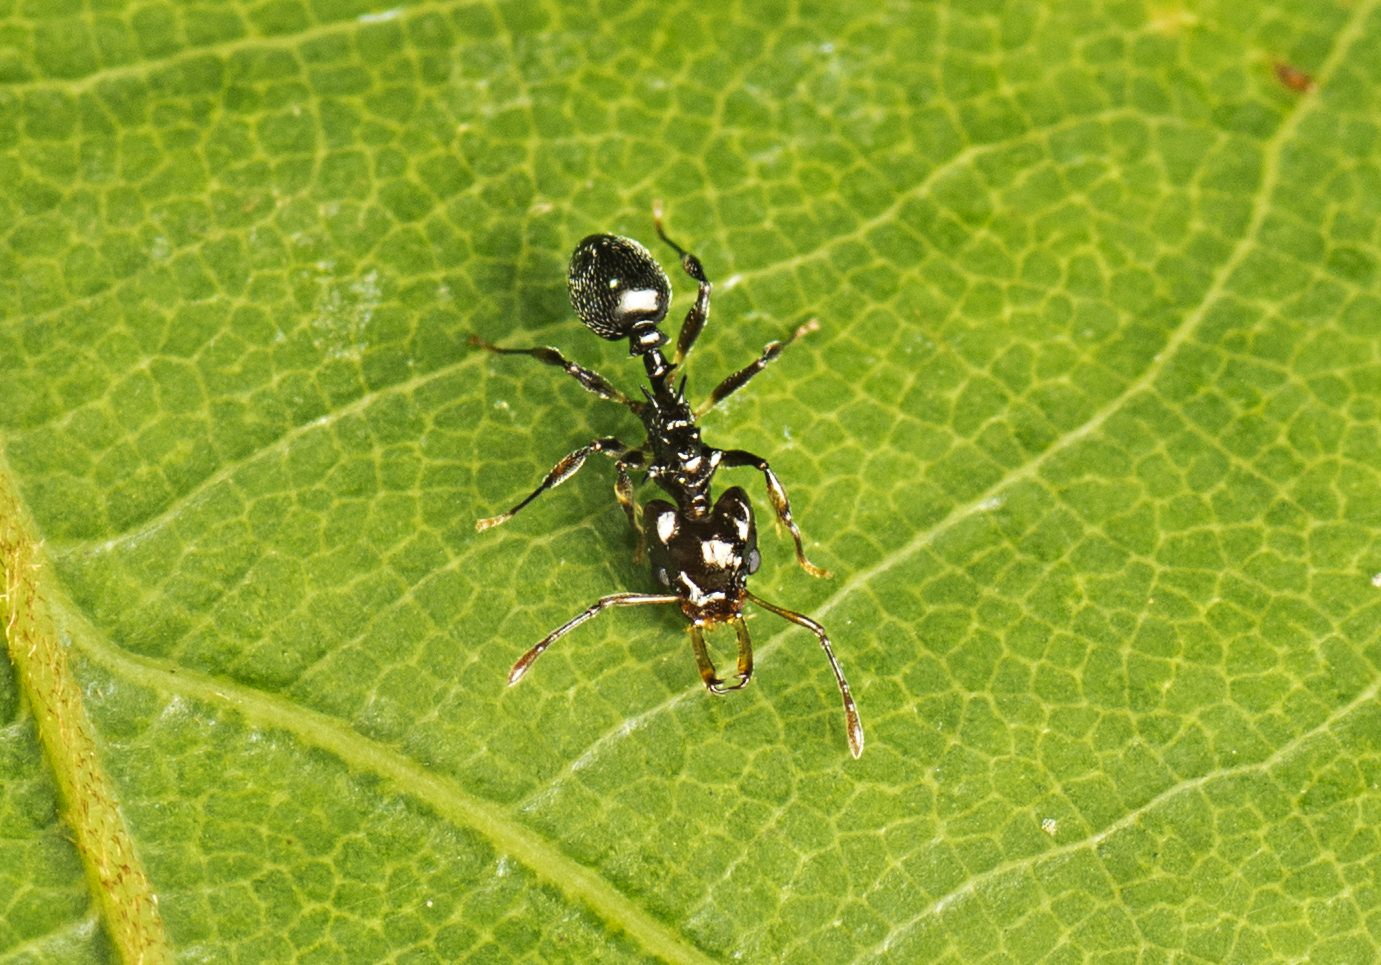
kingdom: Animalia
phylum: Arthropoda
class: Insecta
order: Hymenoptera
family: Formicidae
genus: Orectognathus
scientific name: Orectognathus phyllobates
